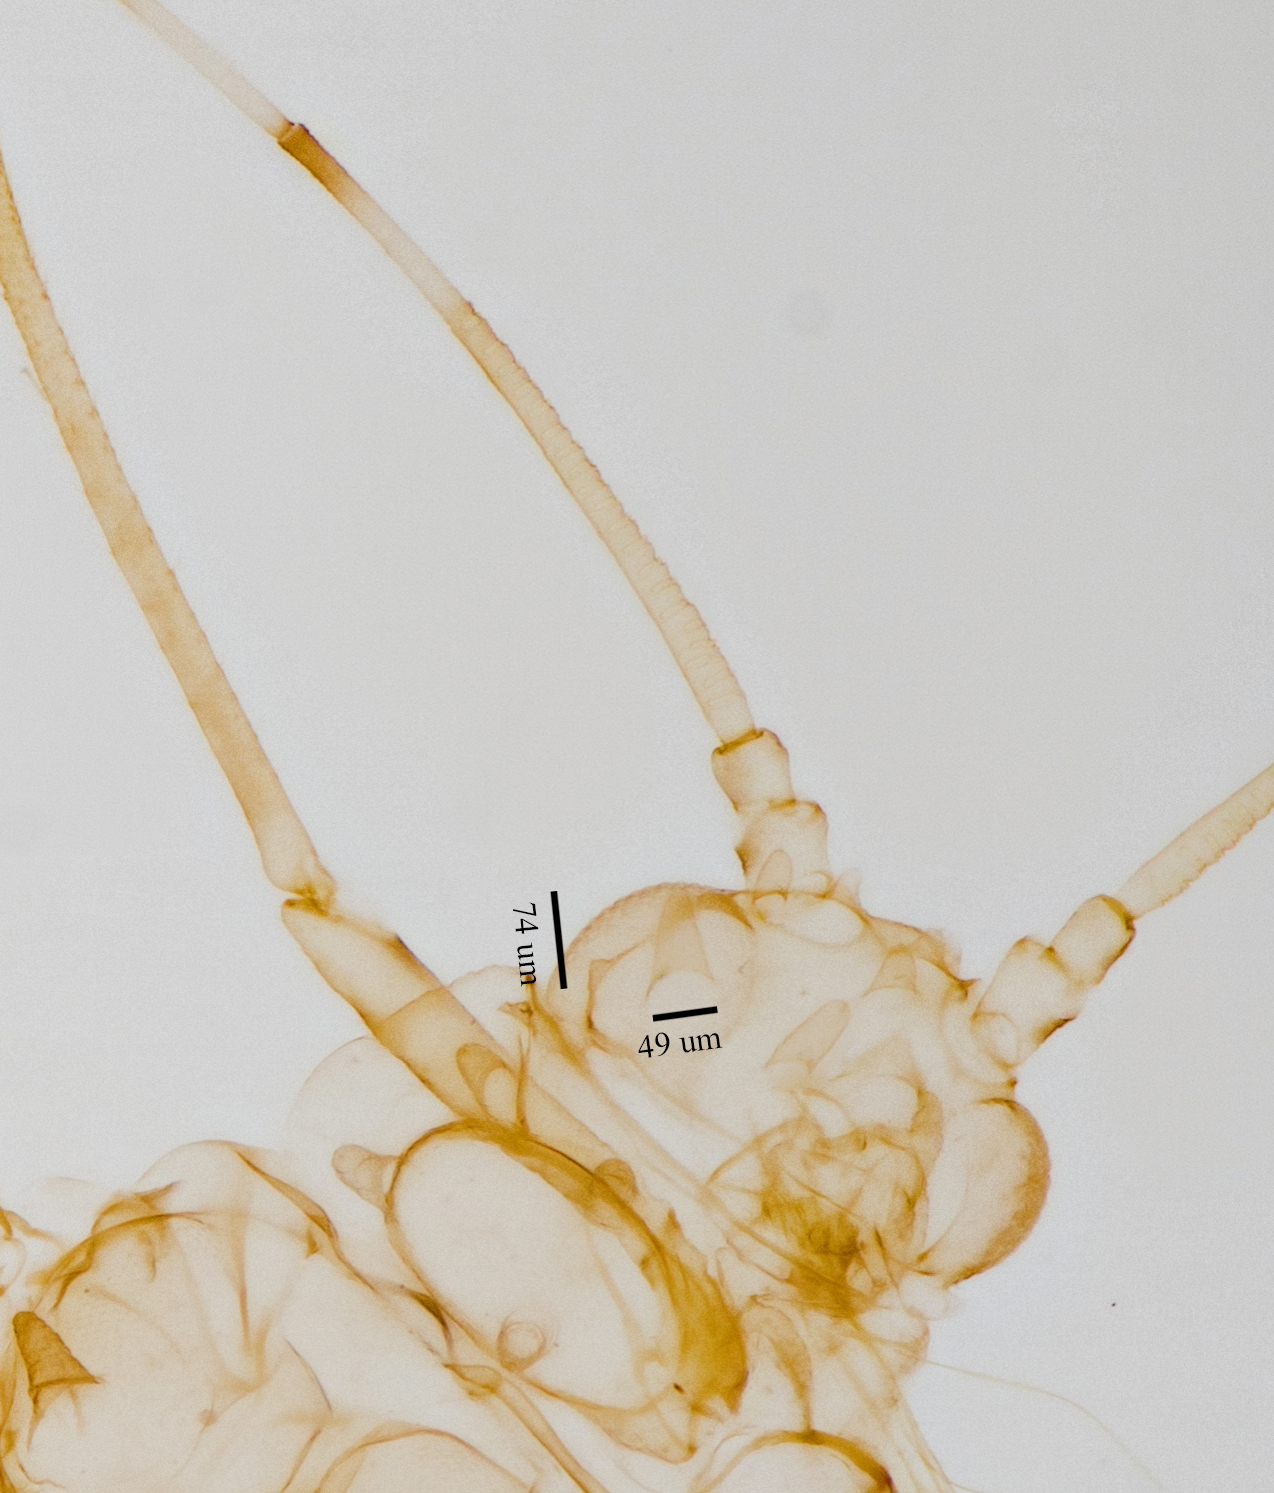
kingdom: Animalia
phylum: Arthropoda
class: Insecta
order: Hemiptera
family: Aphididae
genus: Tinocallis
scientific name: Tinocallis ulmiparvifoliae
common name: Aphid
